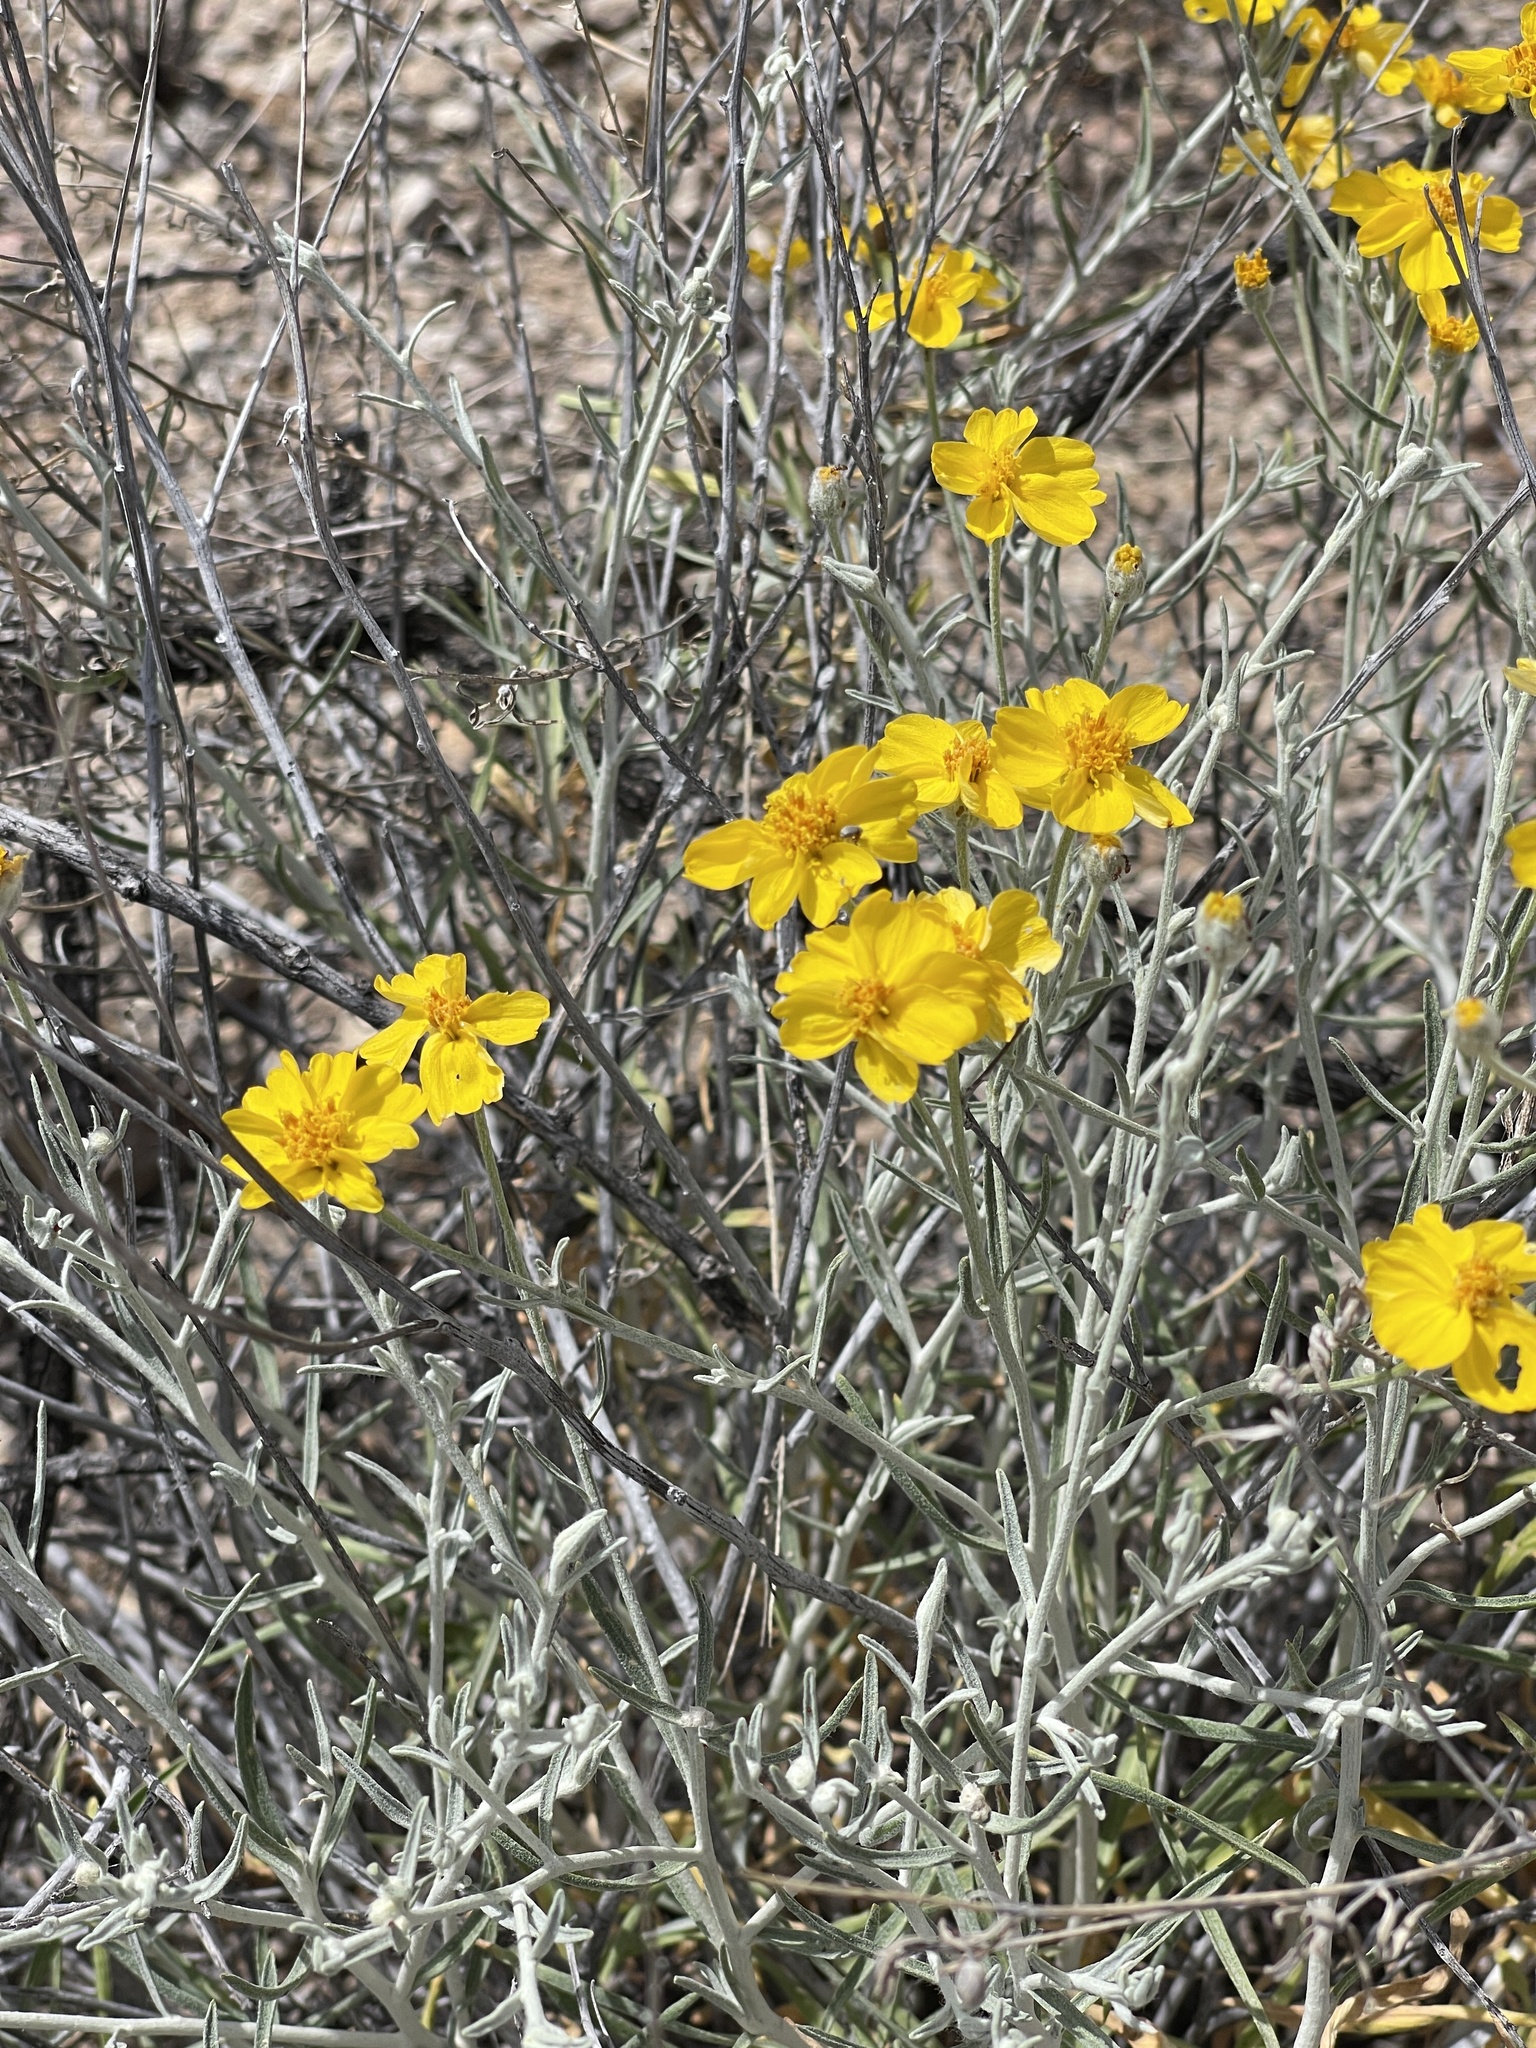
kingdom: Plantae
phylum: Tracheophyta
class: Magnoliopsida
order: Asterales
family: Asteraceae
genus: Psilostrophe
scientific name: Psilostrophe cooperi
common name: White-stem paper-flower
